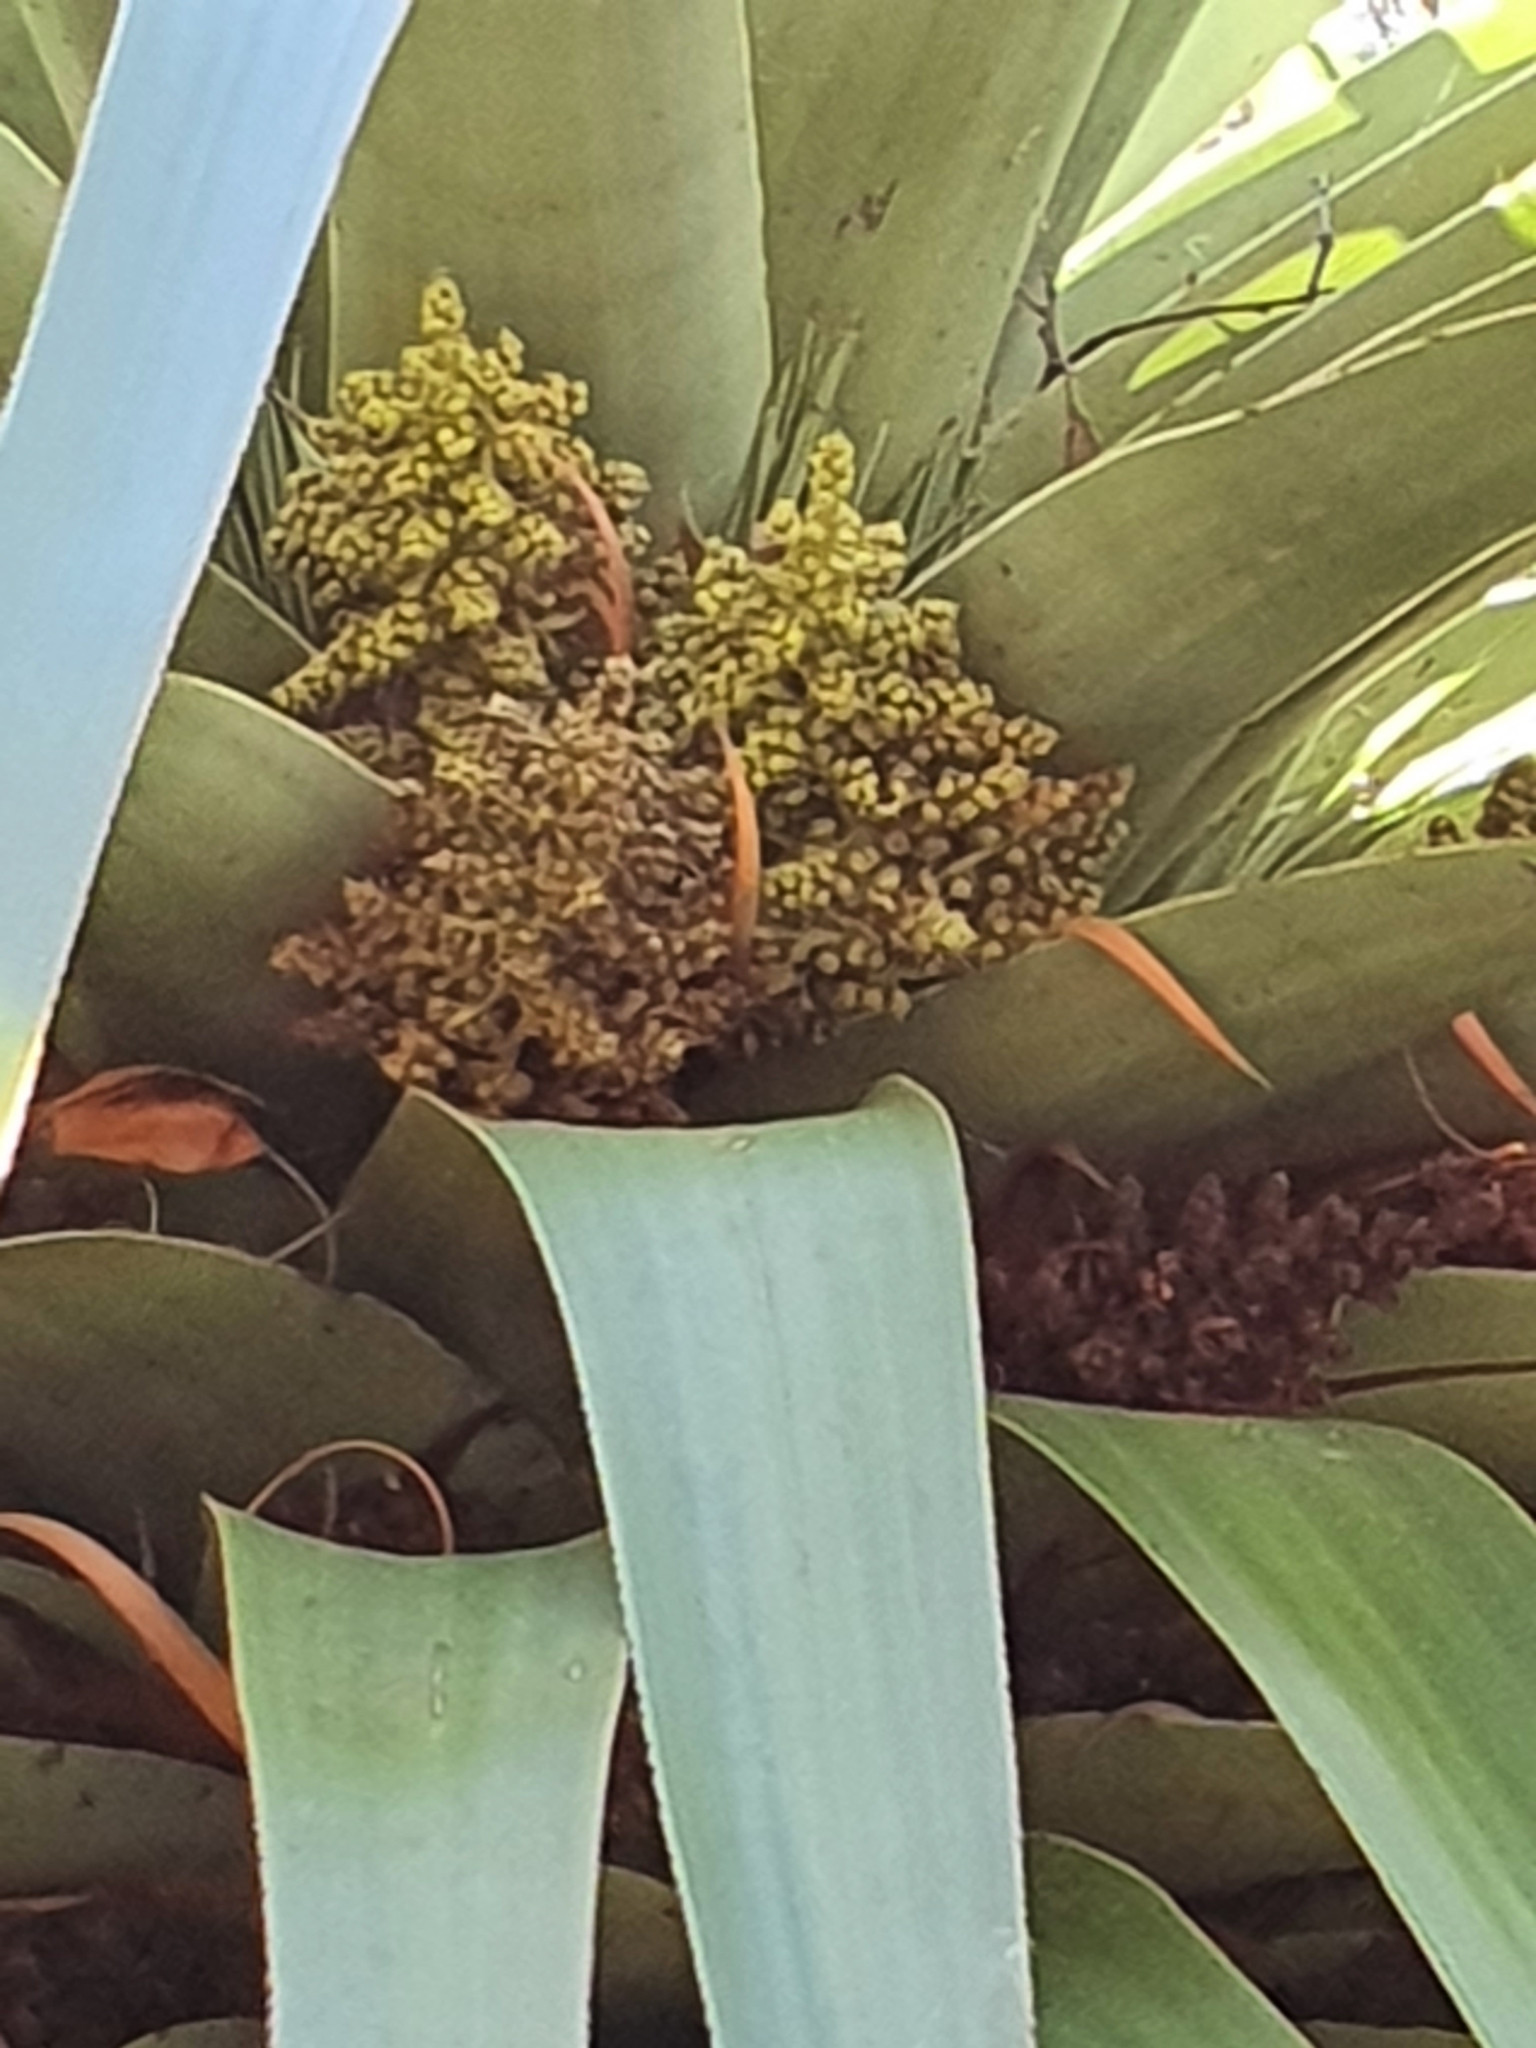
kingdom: Plantae
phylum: Tracheophyta
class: Magnoliopsida
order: Ericales
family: Ericaceae
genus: Dracophyllum
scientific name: Dracophyllum pandanifolium
